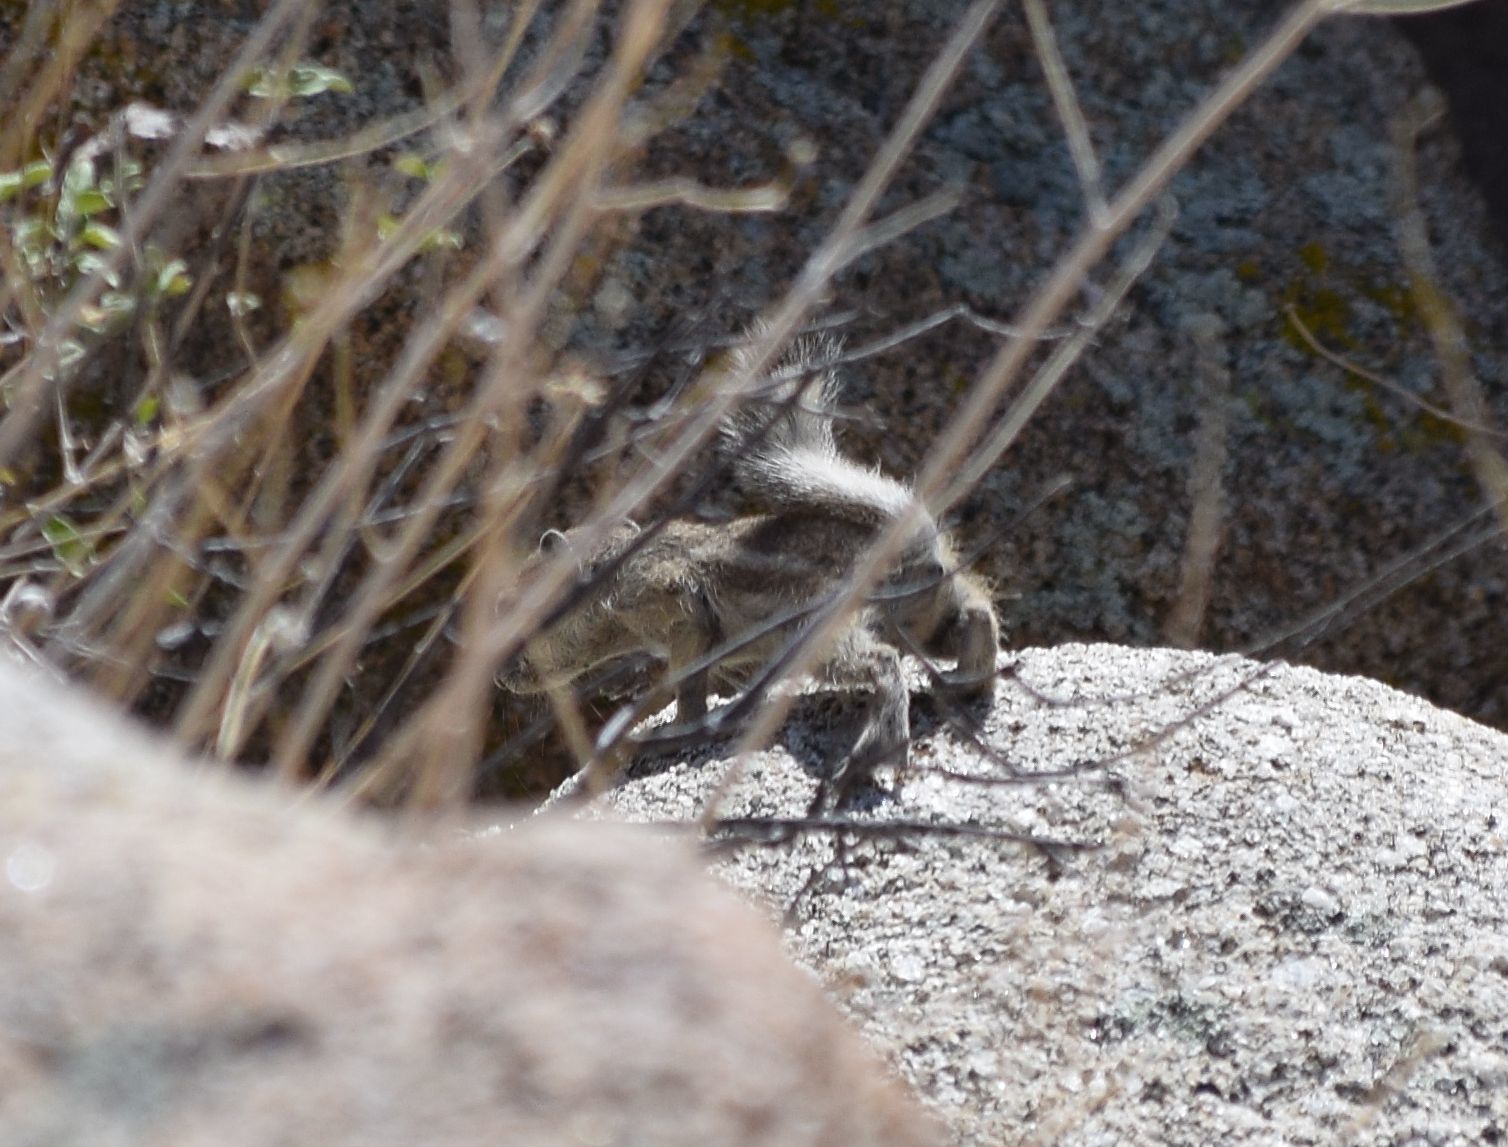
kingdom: Animalia
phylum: Chordata
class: Mammalia
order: Rodentia
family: Sciuridae
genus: Ammospermophilus
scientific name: Ammospermophilus leucurus
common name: White-tailed antelope squirrel
